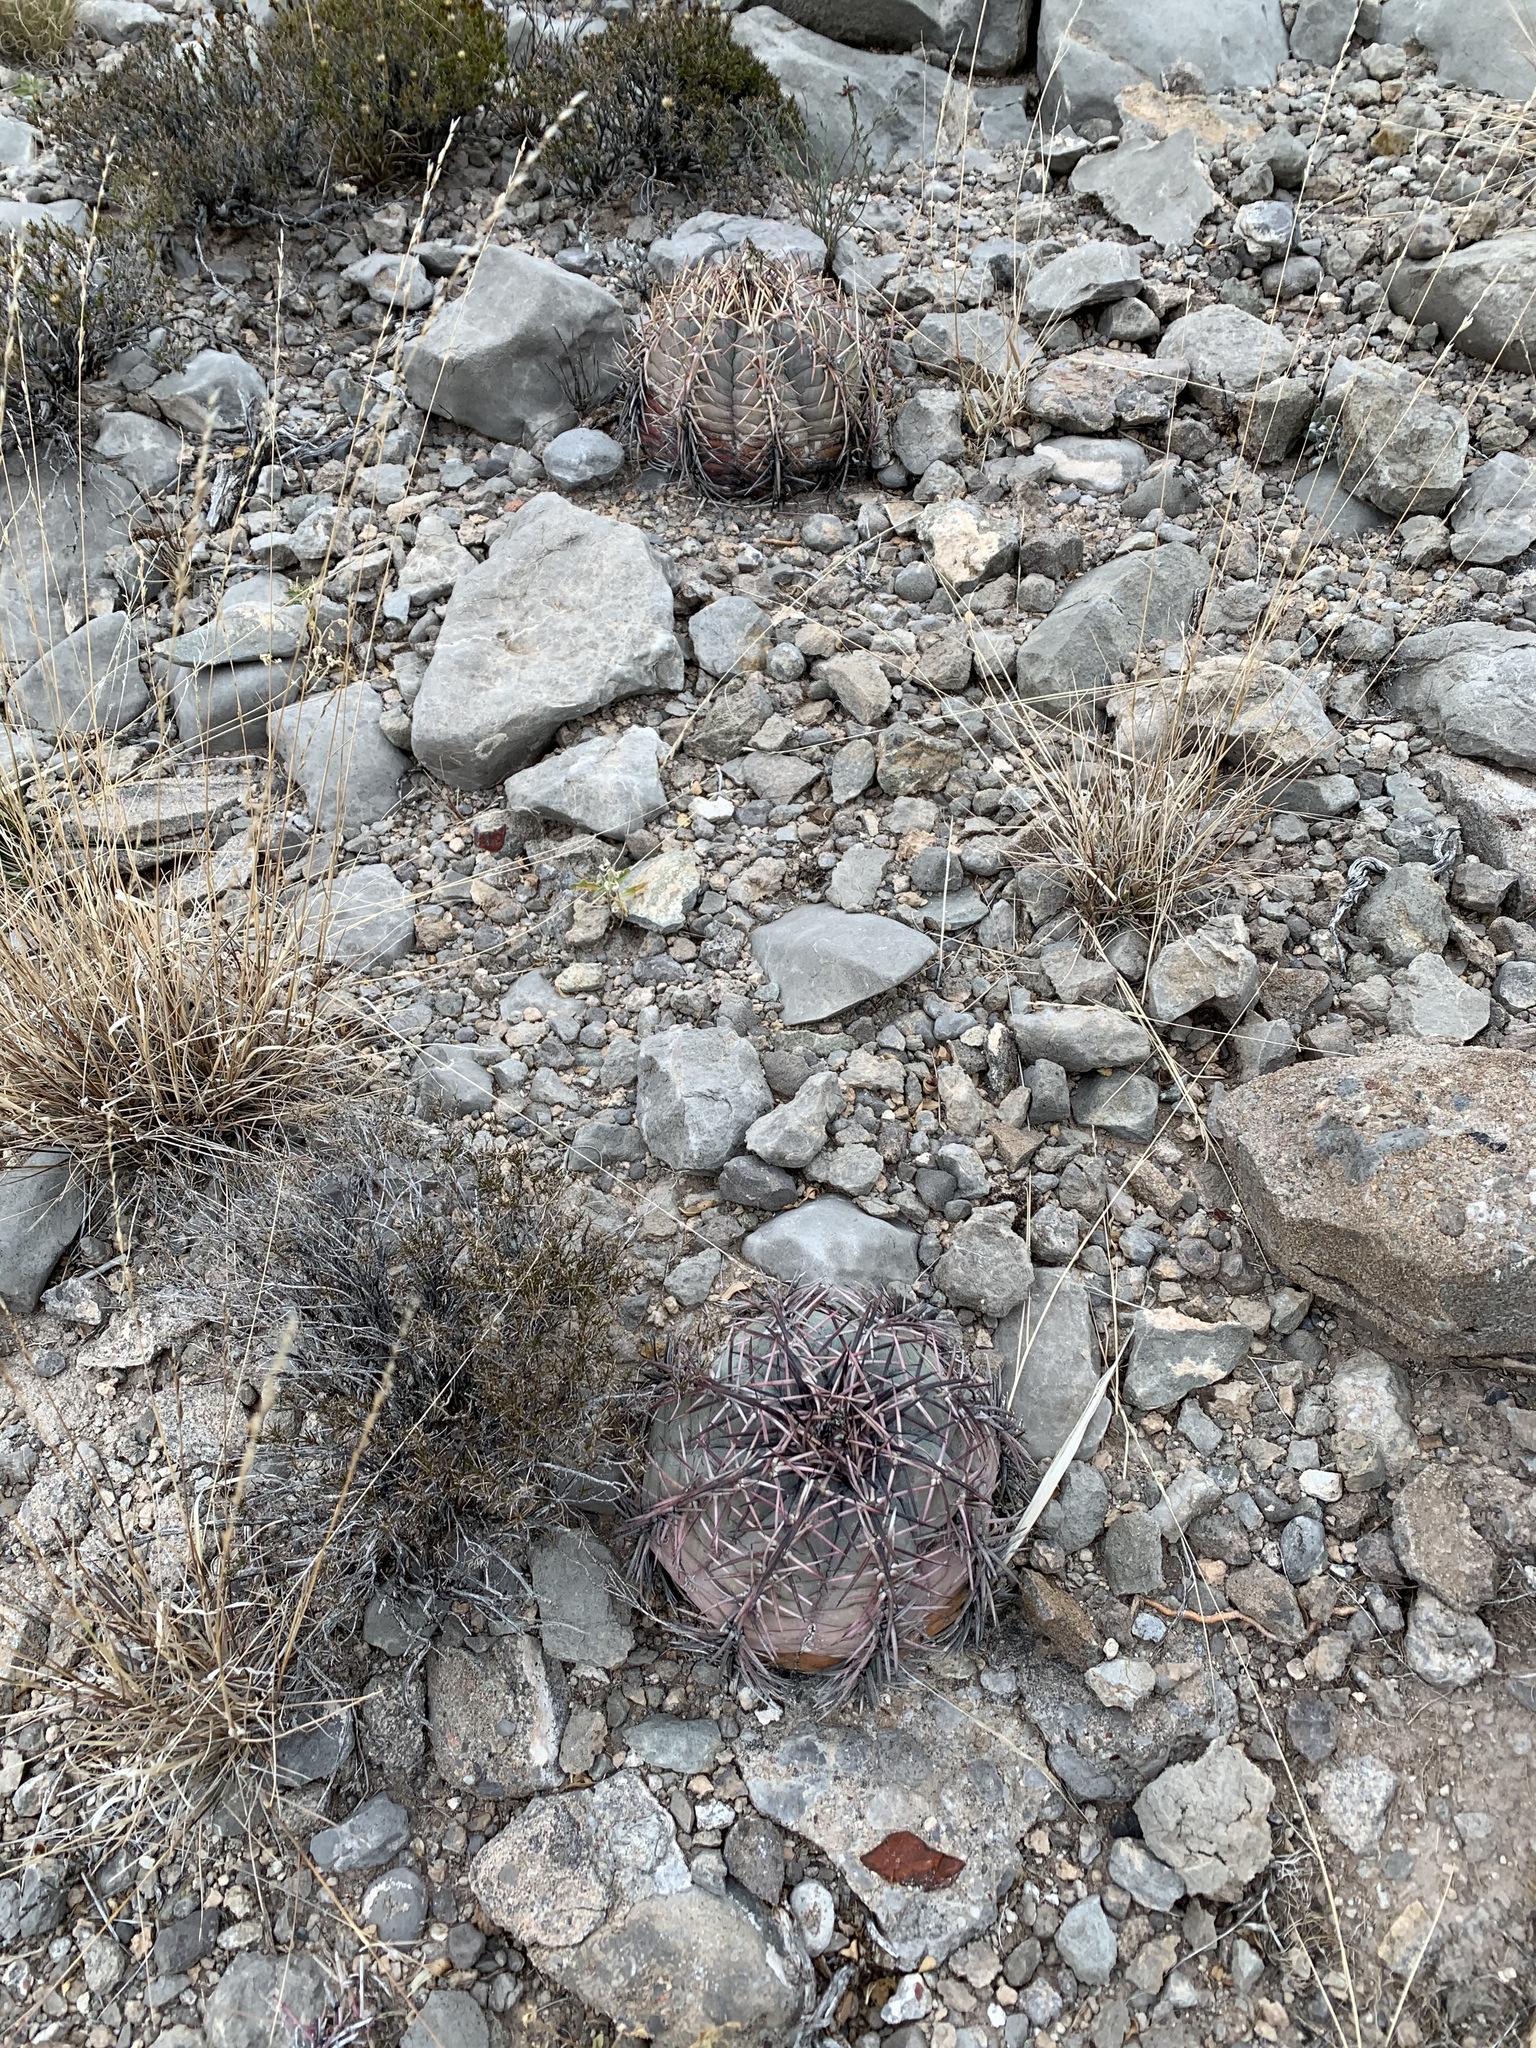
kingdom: Plantae
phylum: Tracheophyta
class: Magnoliopsida
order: Caryophyllales
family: Cactaceae
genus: Echinocactus
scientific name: Echinocactus horizonthalonius
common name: Devilshead
